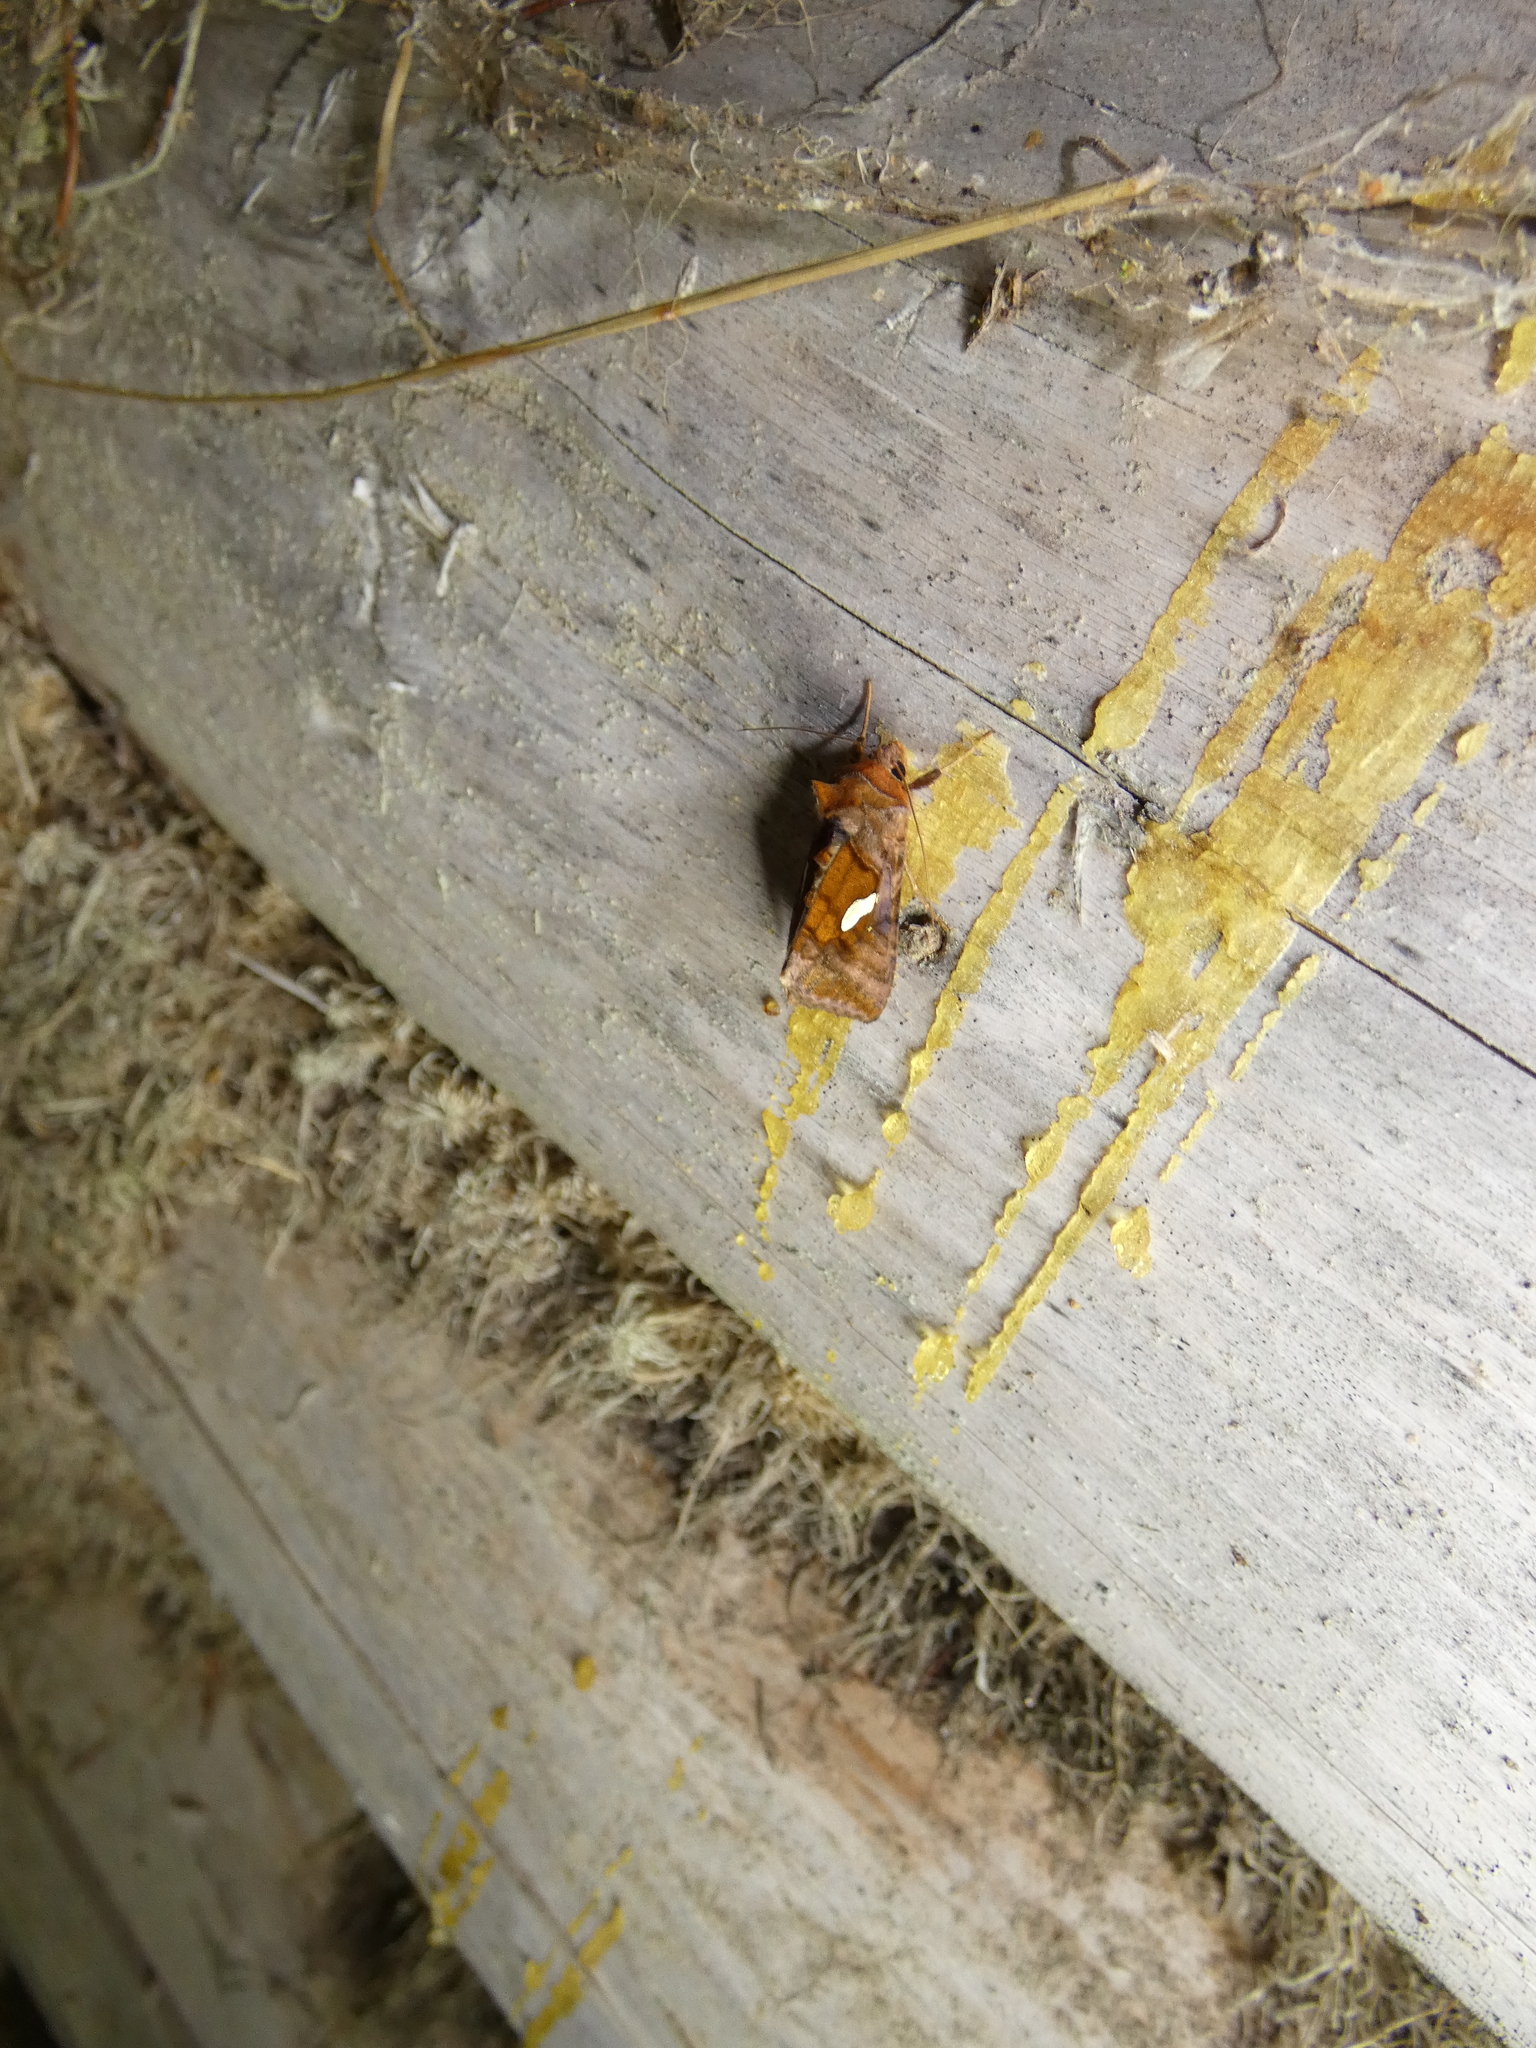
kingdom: Animalia
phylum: Arthropoda
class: Insecta
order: Lepidoptera
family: Noctuidae
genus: Autographa
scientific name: Autographa excelsa
